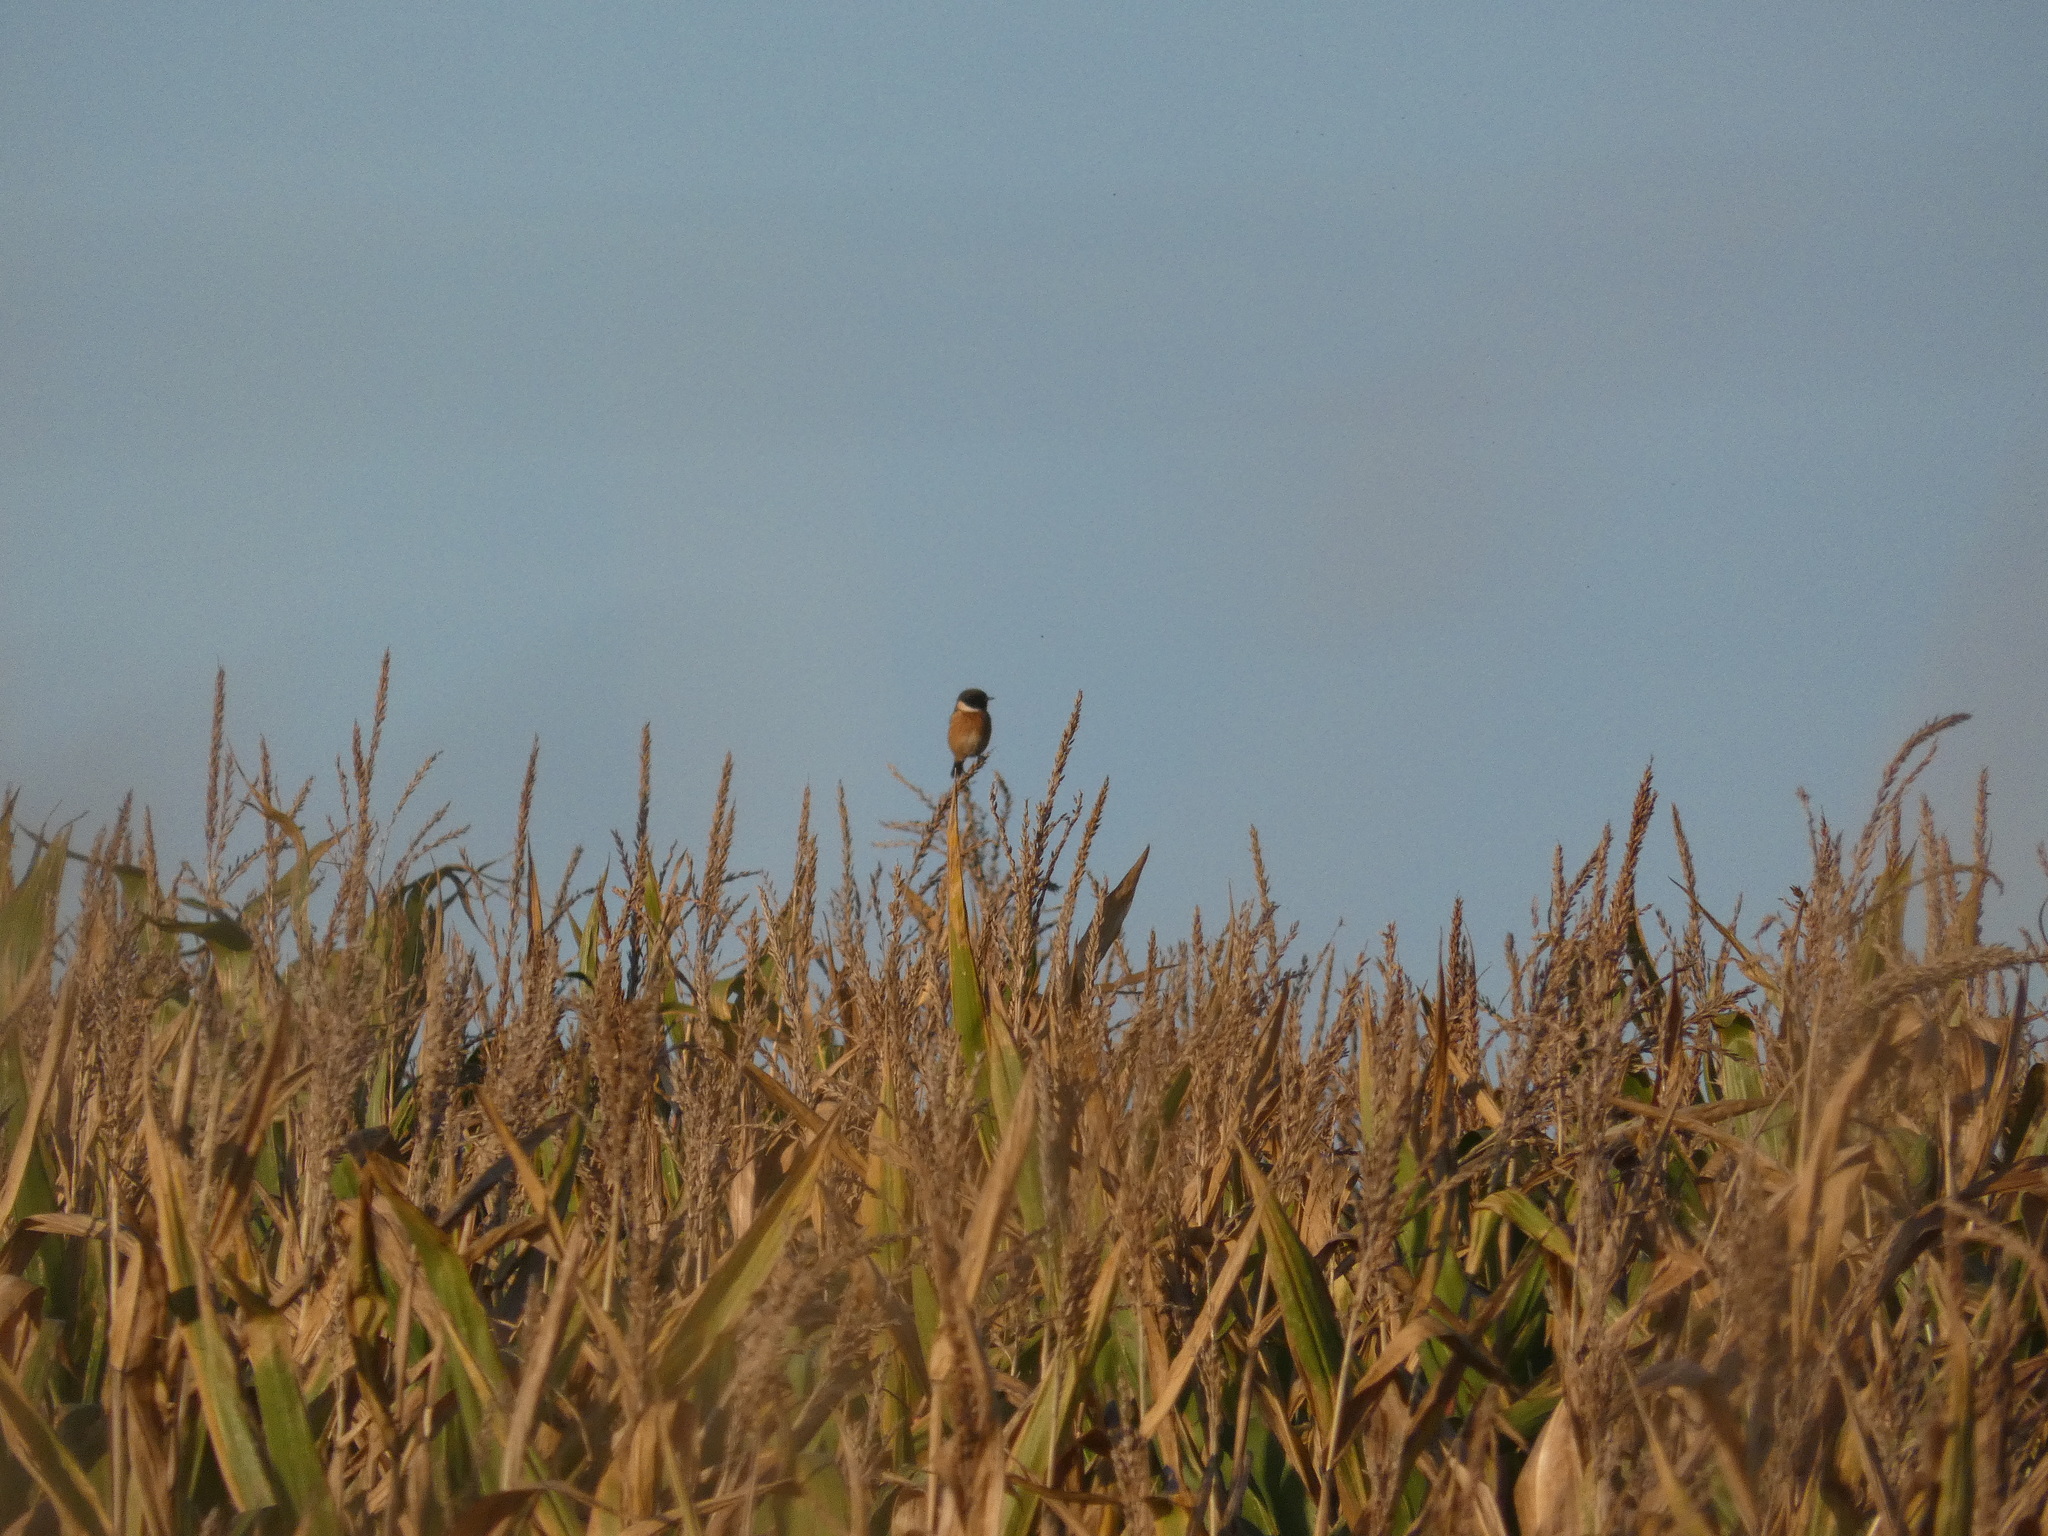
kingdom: Animalia
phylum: Chordata
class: Aves
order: Passeriformes
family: Muscicapidae
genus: Saxicola
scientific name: Saxicola rubicola
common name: European stonechat
